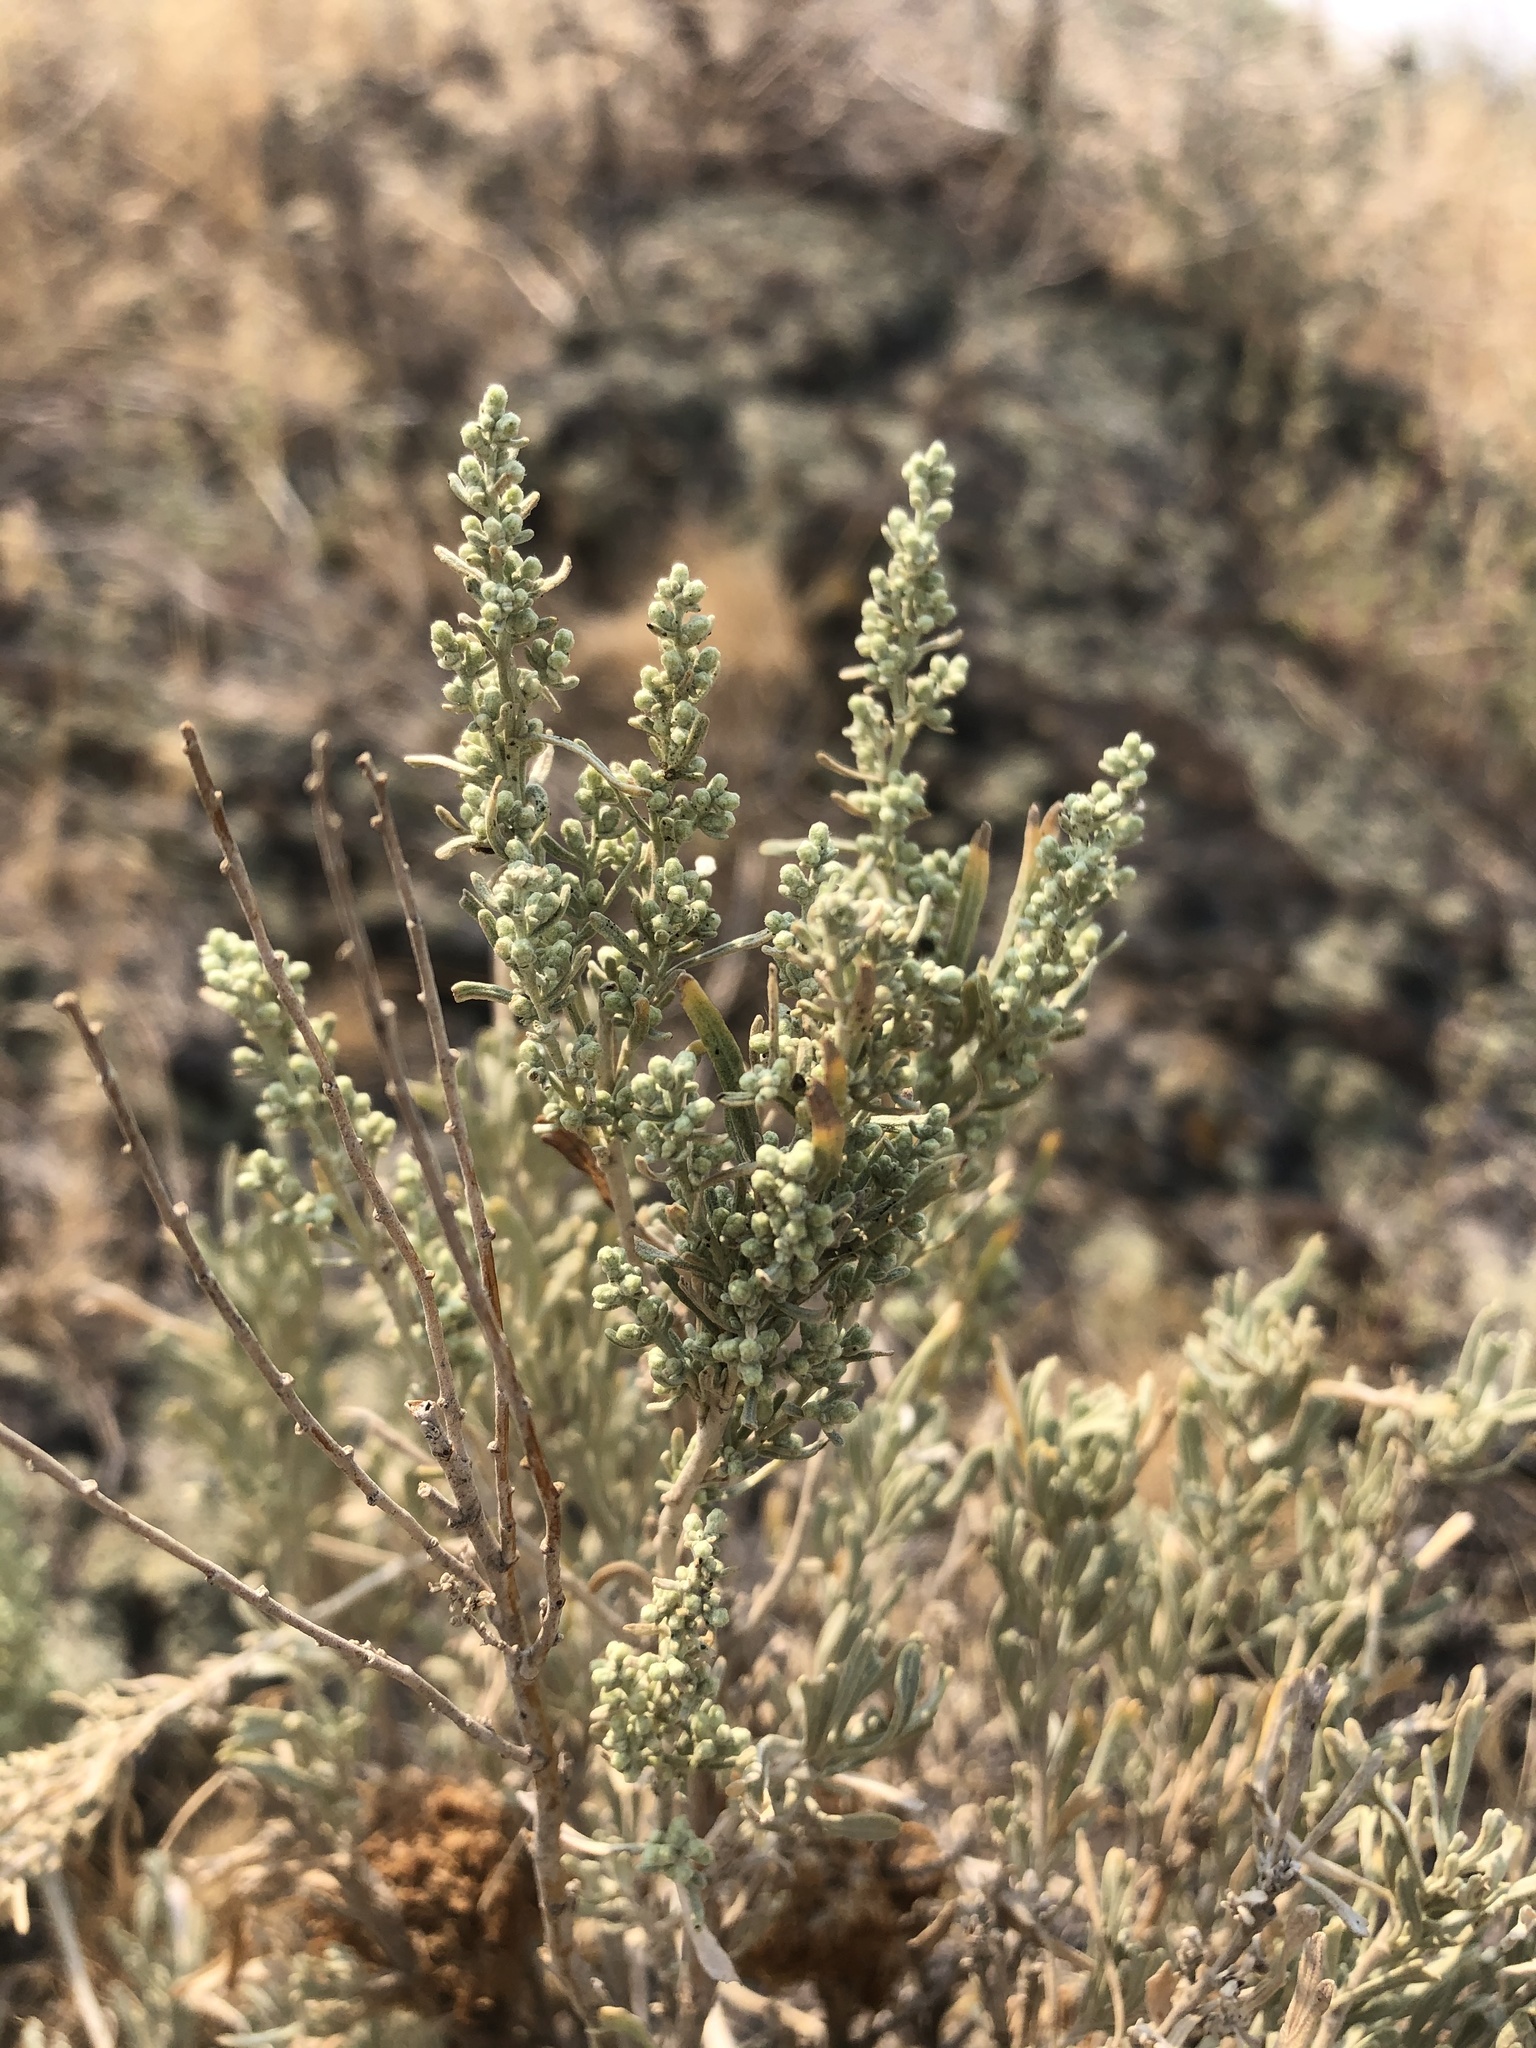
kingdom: Animalia
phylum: Arthropoda
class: Insecta
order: Diptera
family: Cecidomyiidae
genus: Rhopalomyia
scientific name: Rhopalomyia medusa
